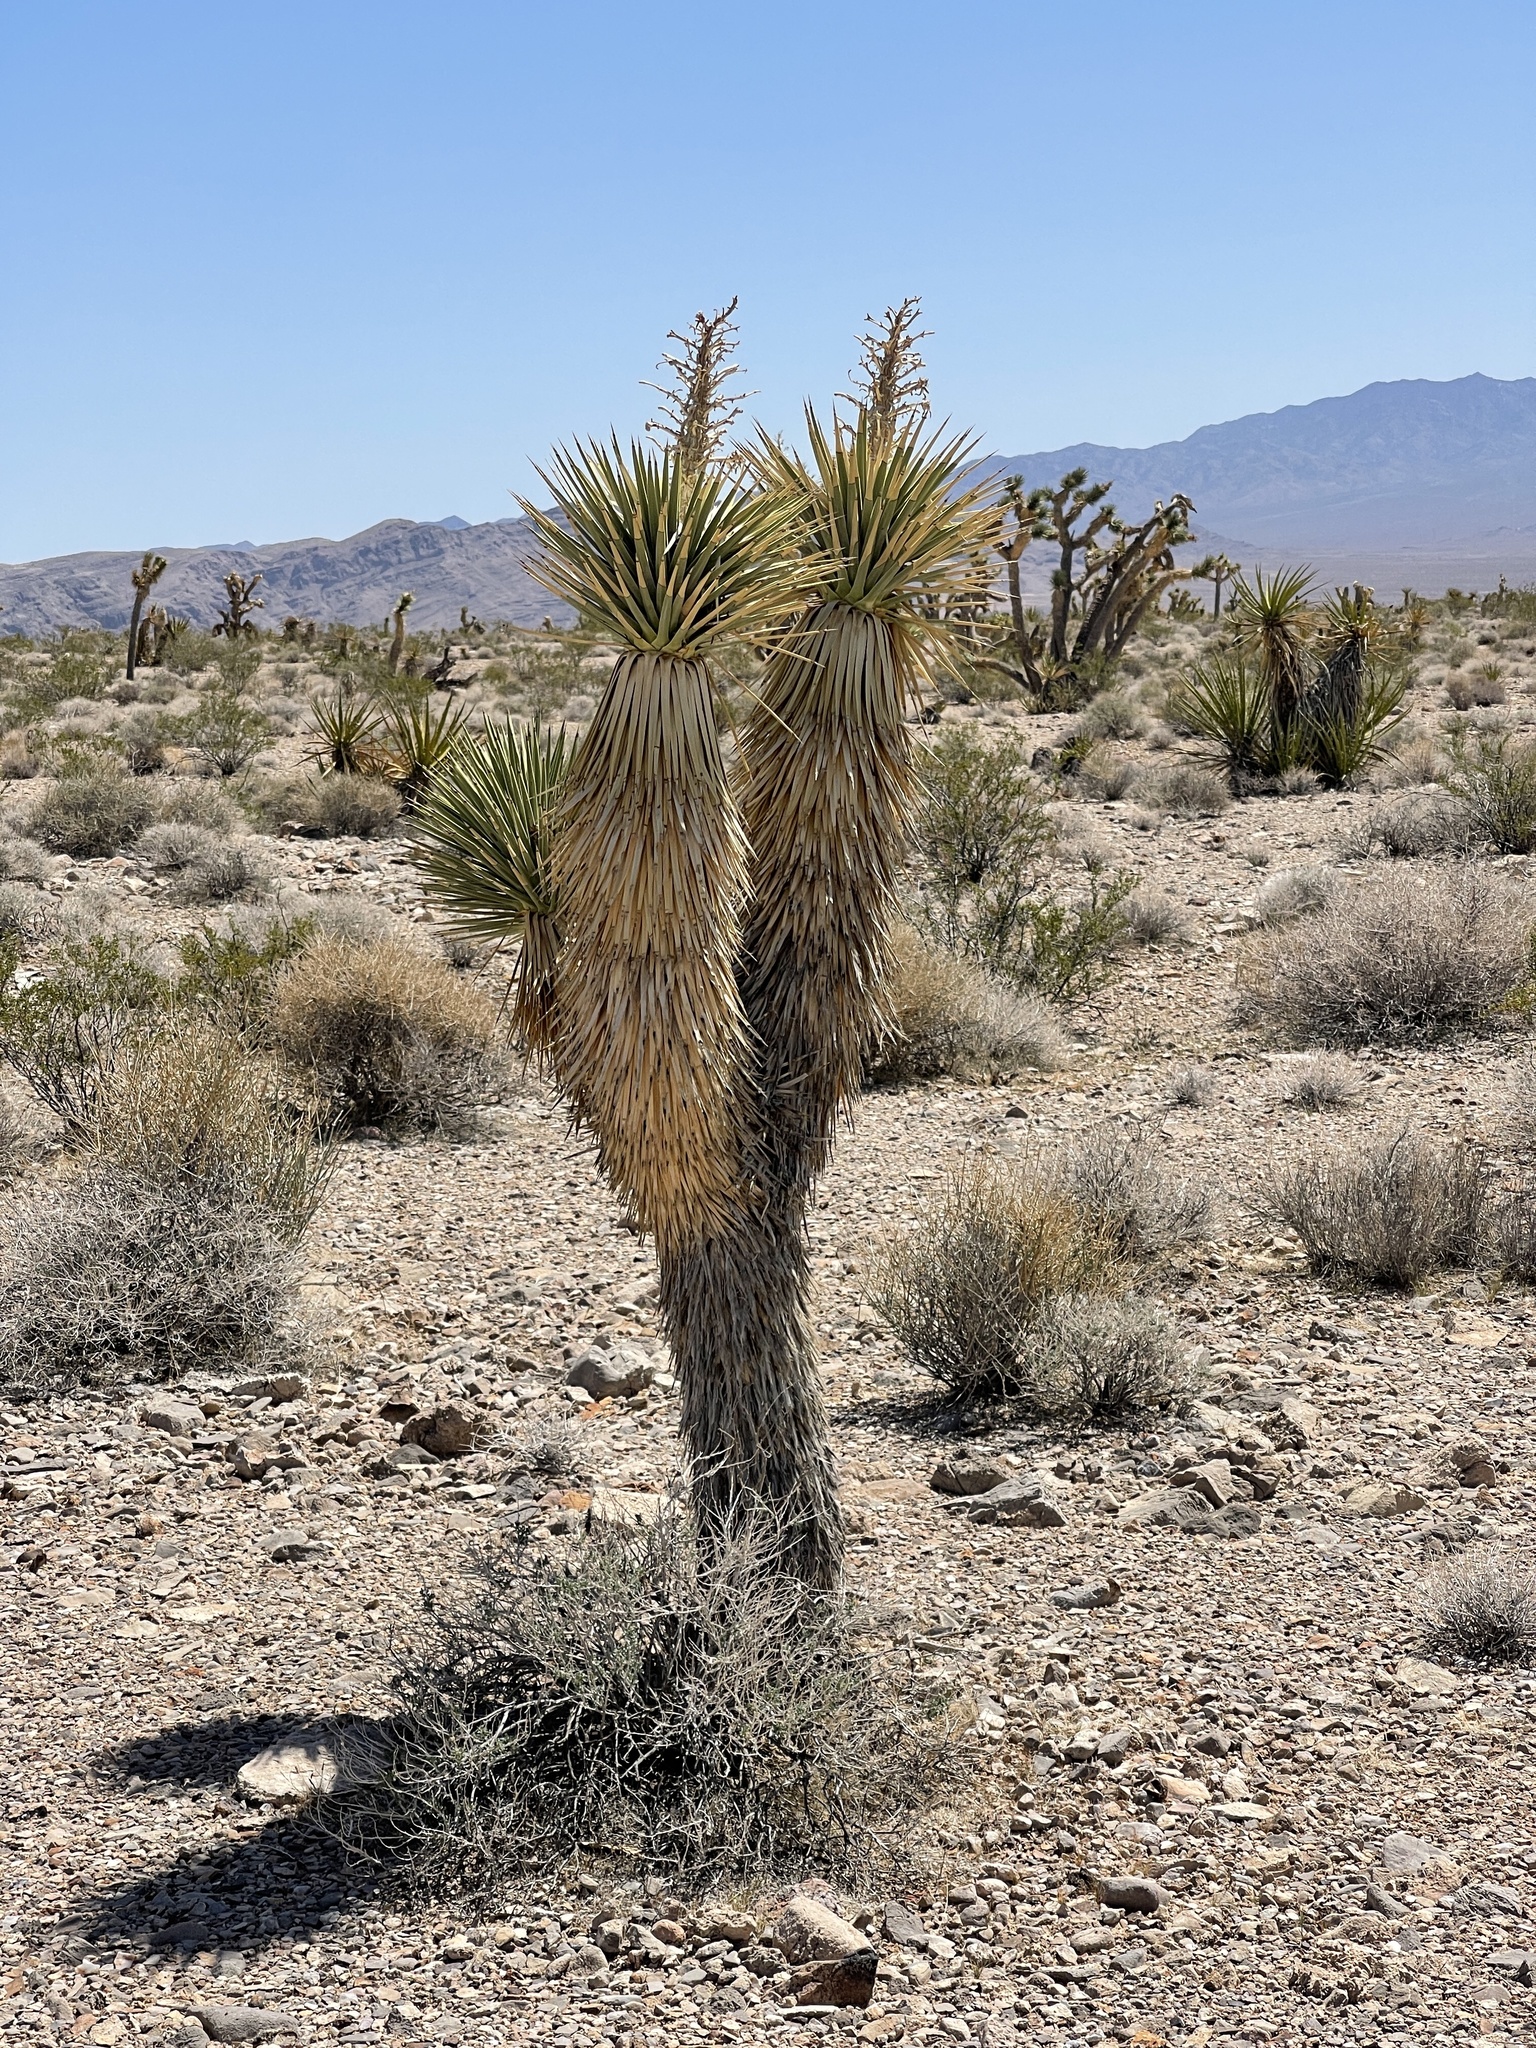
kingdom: Plantae
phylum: Tracheophyta
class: Liliopsida
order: Asparagales
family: Asparagaceae
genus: Yucca
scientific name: Yucca brevifolia
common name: Joshua tree
